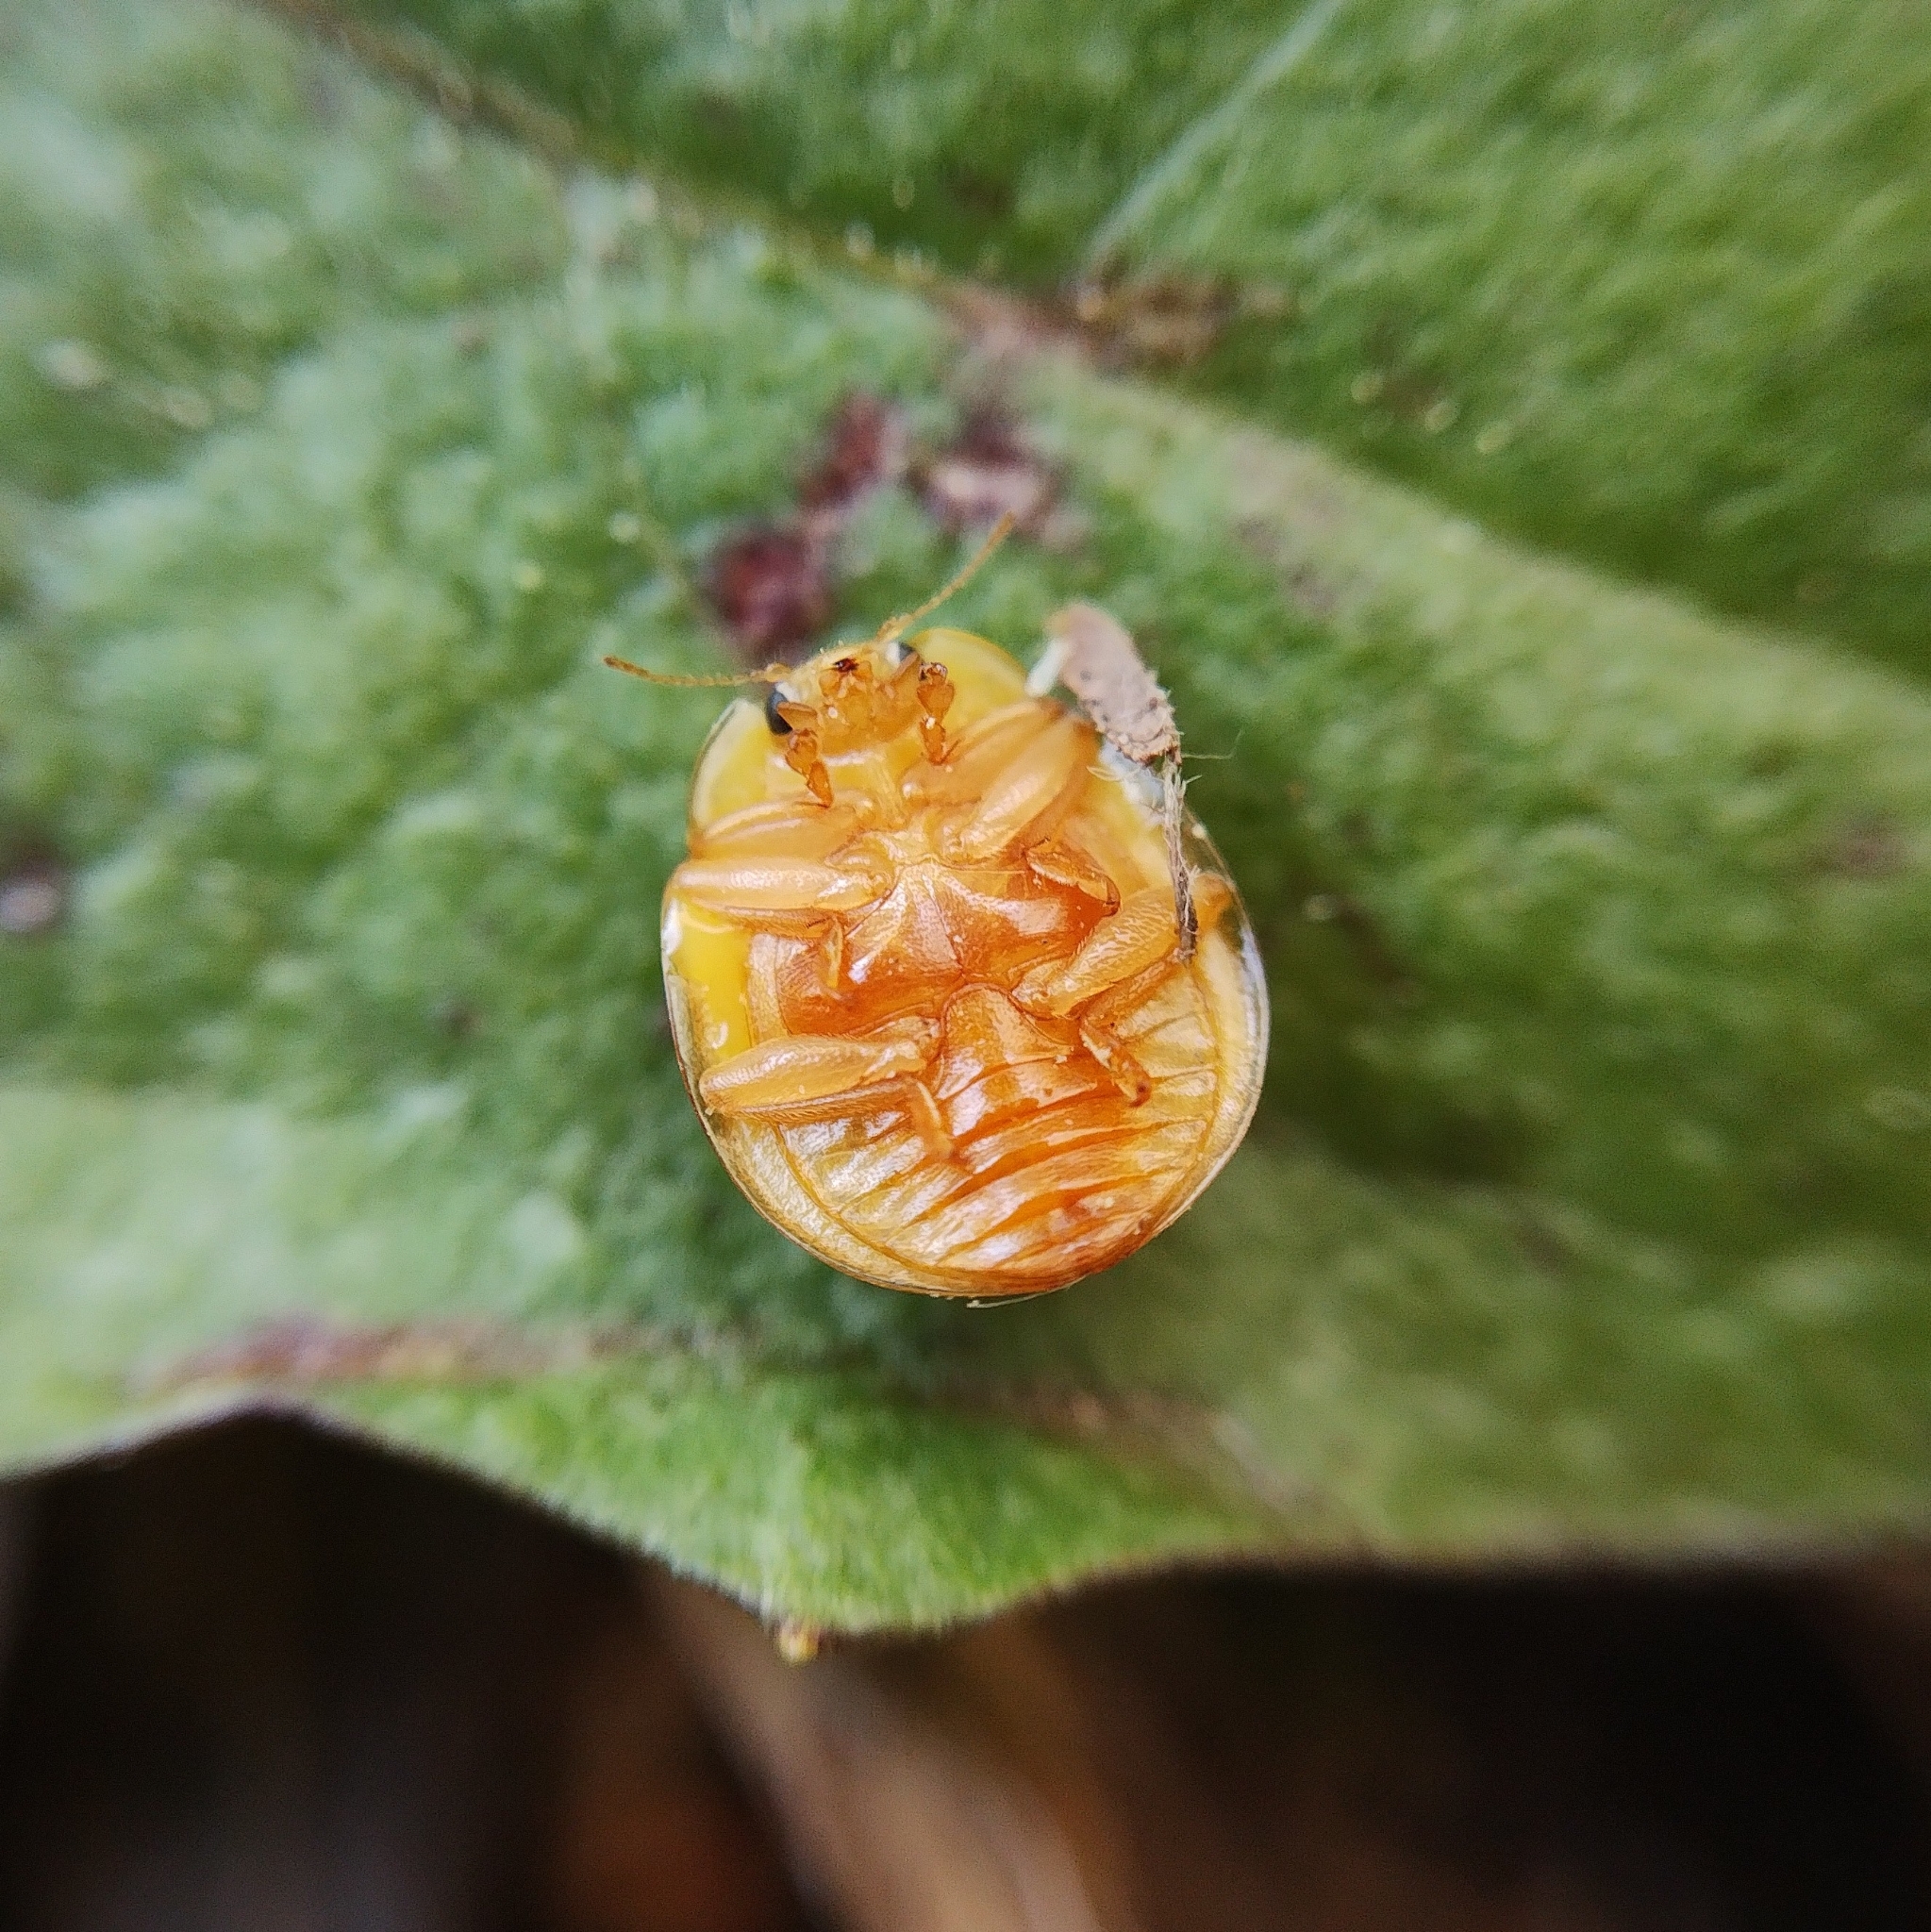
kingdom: Animalia
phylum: Arthropoda
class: Insecta
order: Coleoptera
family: Coccinellidae
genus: Calvia
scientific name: Calvia decemguttata
